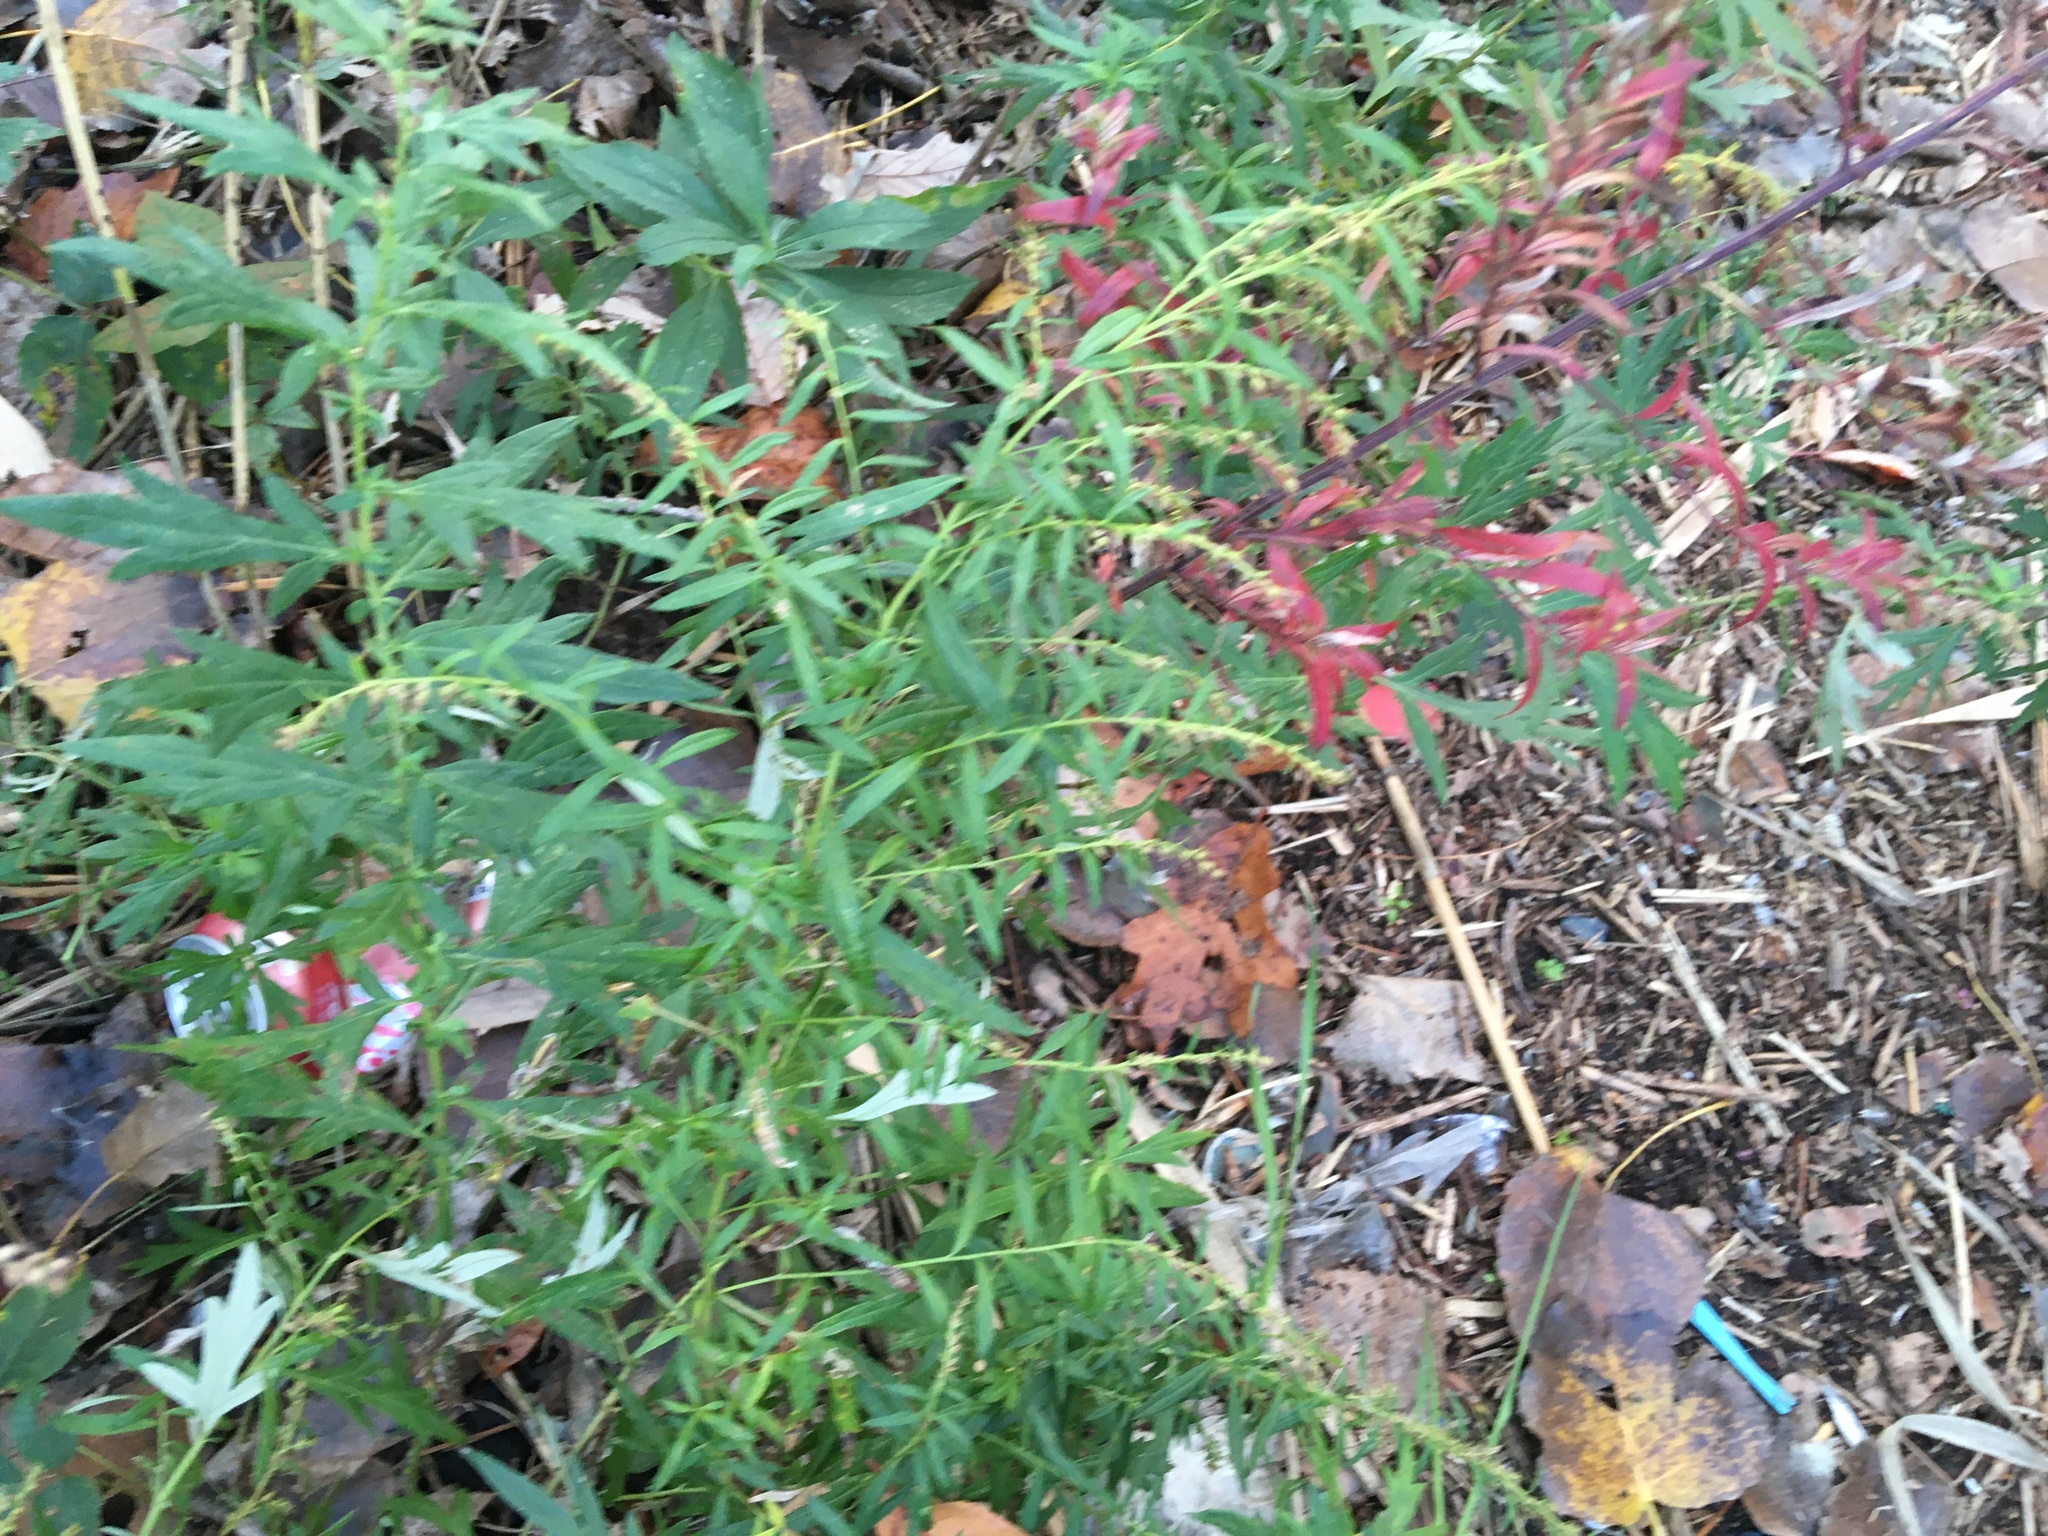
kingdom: Plantae
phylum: Tracheophyta
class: Magnoliopsida
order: Asterales
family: Asteraceae
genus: Artemisia
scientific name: Artemisia vulgaris
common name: Mugwort
